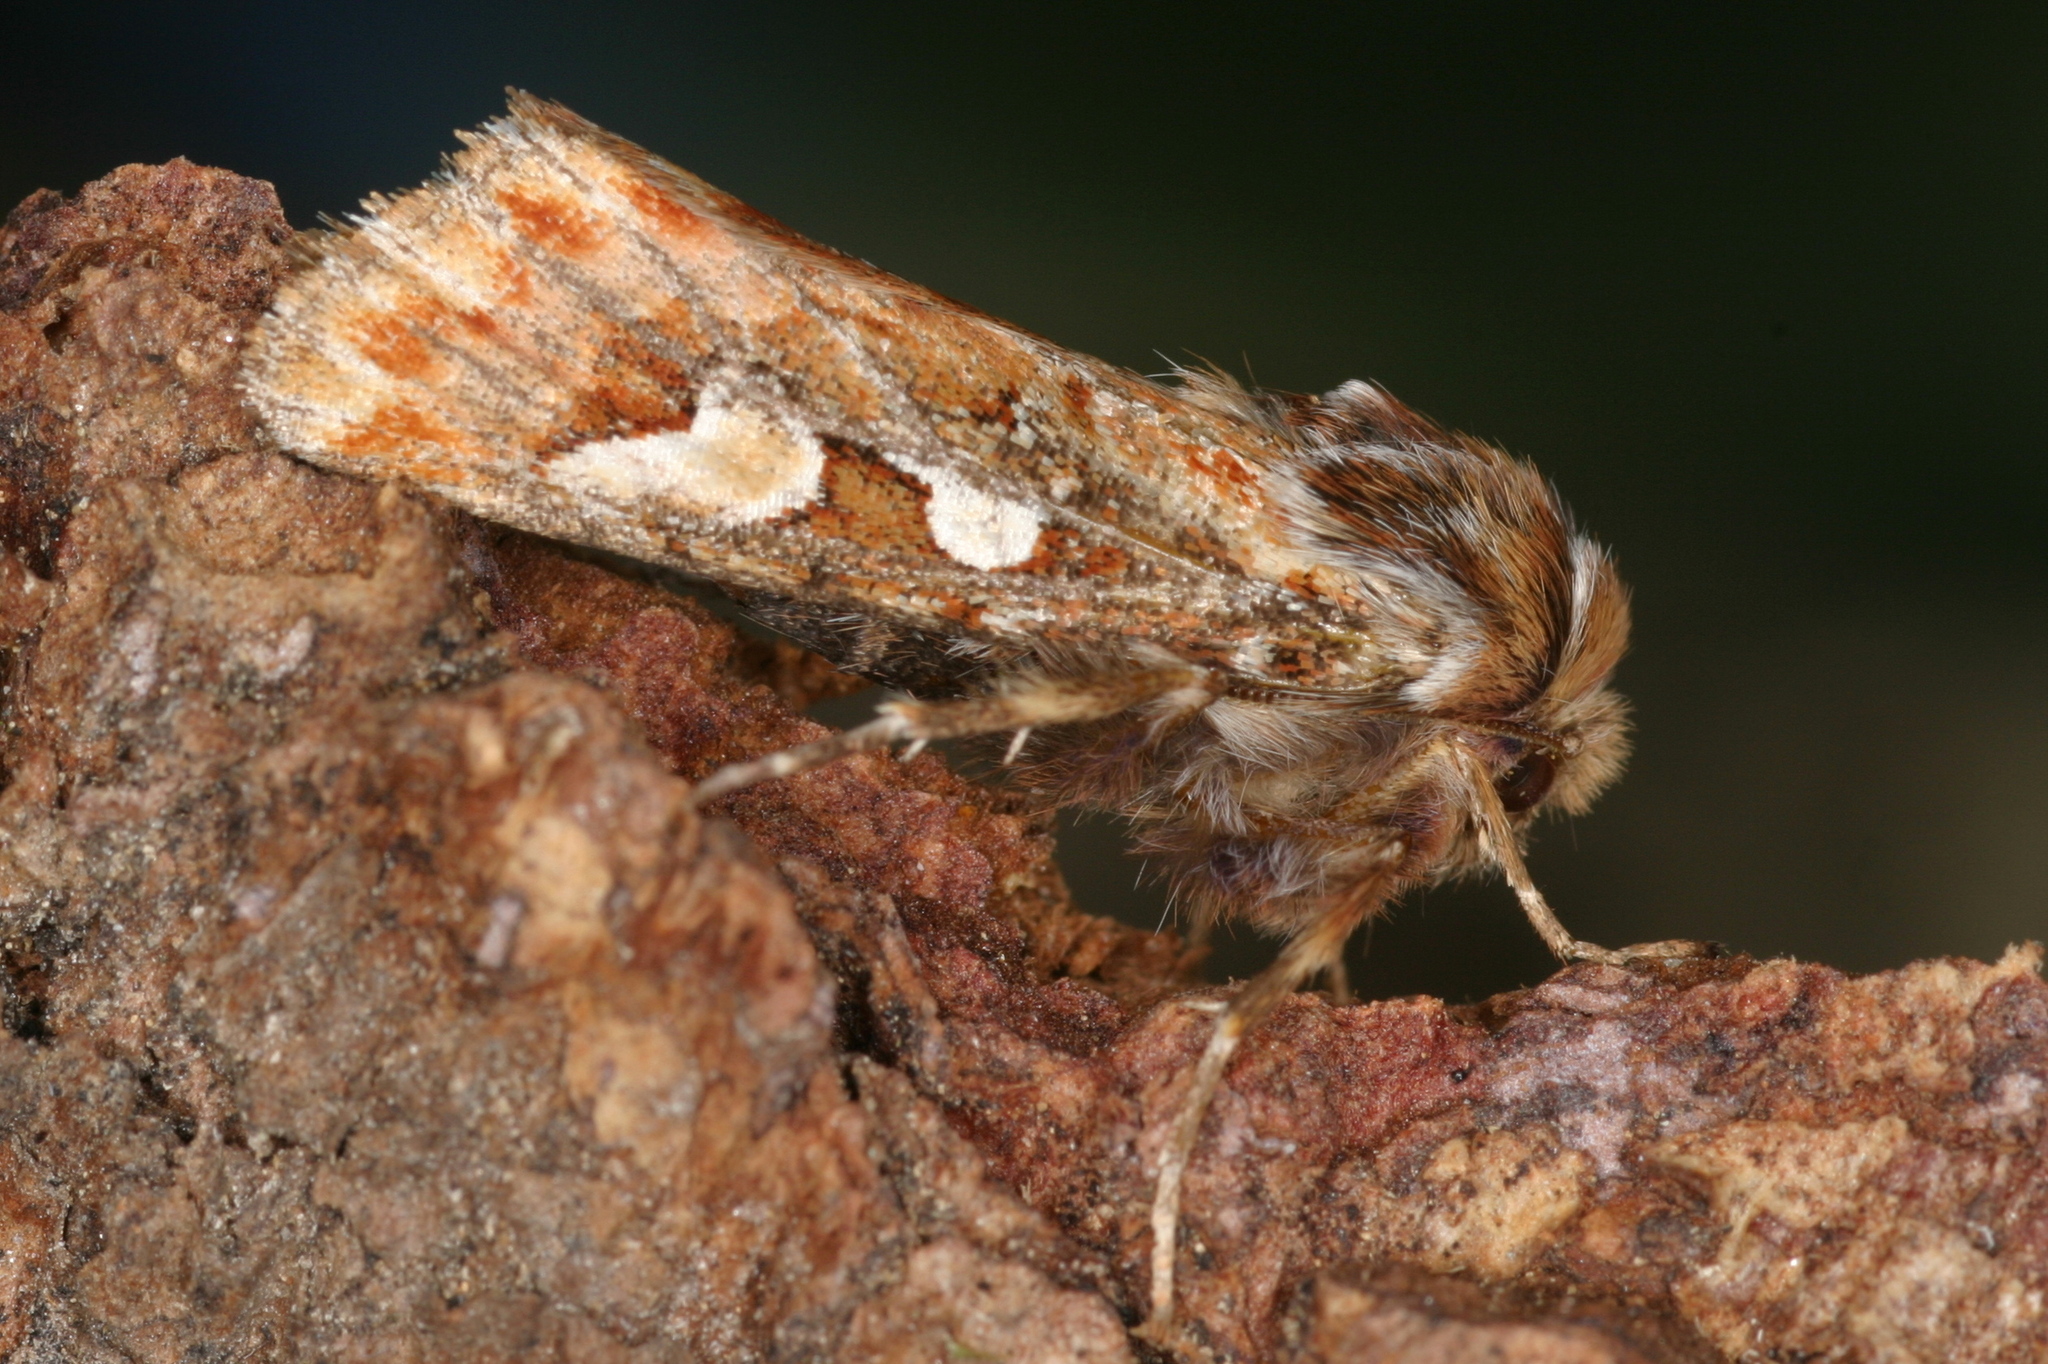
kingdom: Animalia
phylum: Arthropoda
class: Insecta
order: Lepidoptera
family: Noctuidae
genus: Panolis
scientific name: Panolis flammea
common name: Pine beauty
